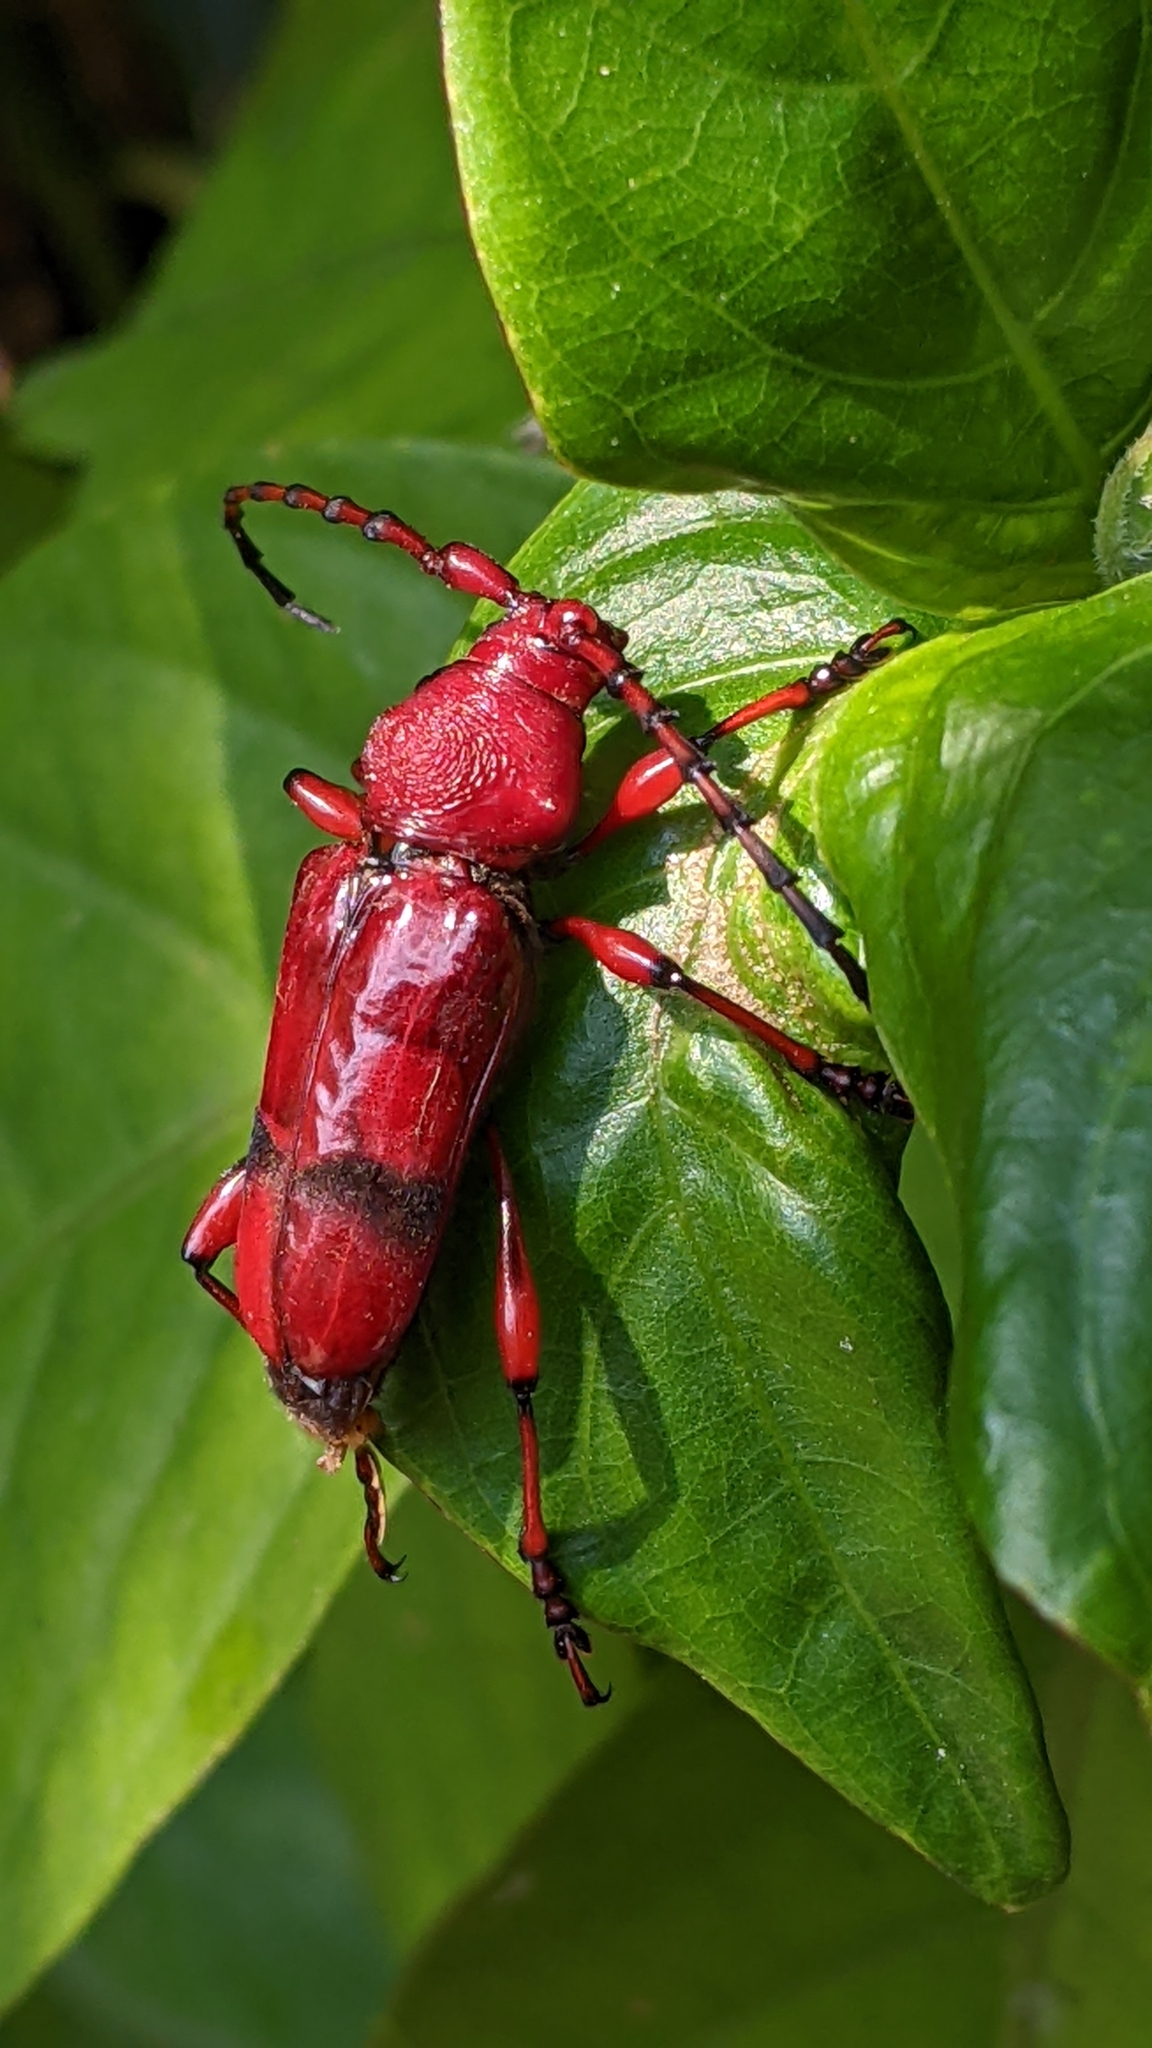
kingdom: Animalia
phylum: Arthropoda
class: Insecta
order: Coleoptera
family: Cerambycidae
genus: Dicelosternus
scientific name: Dicelosternus corallinus
